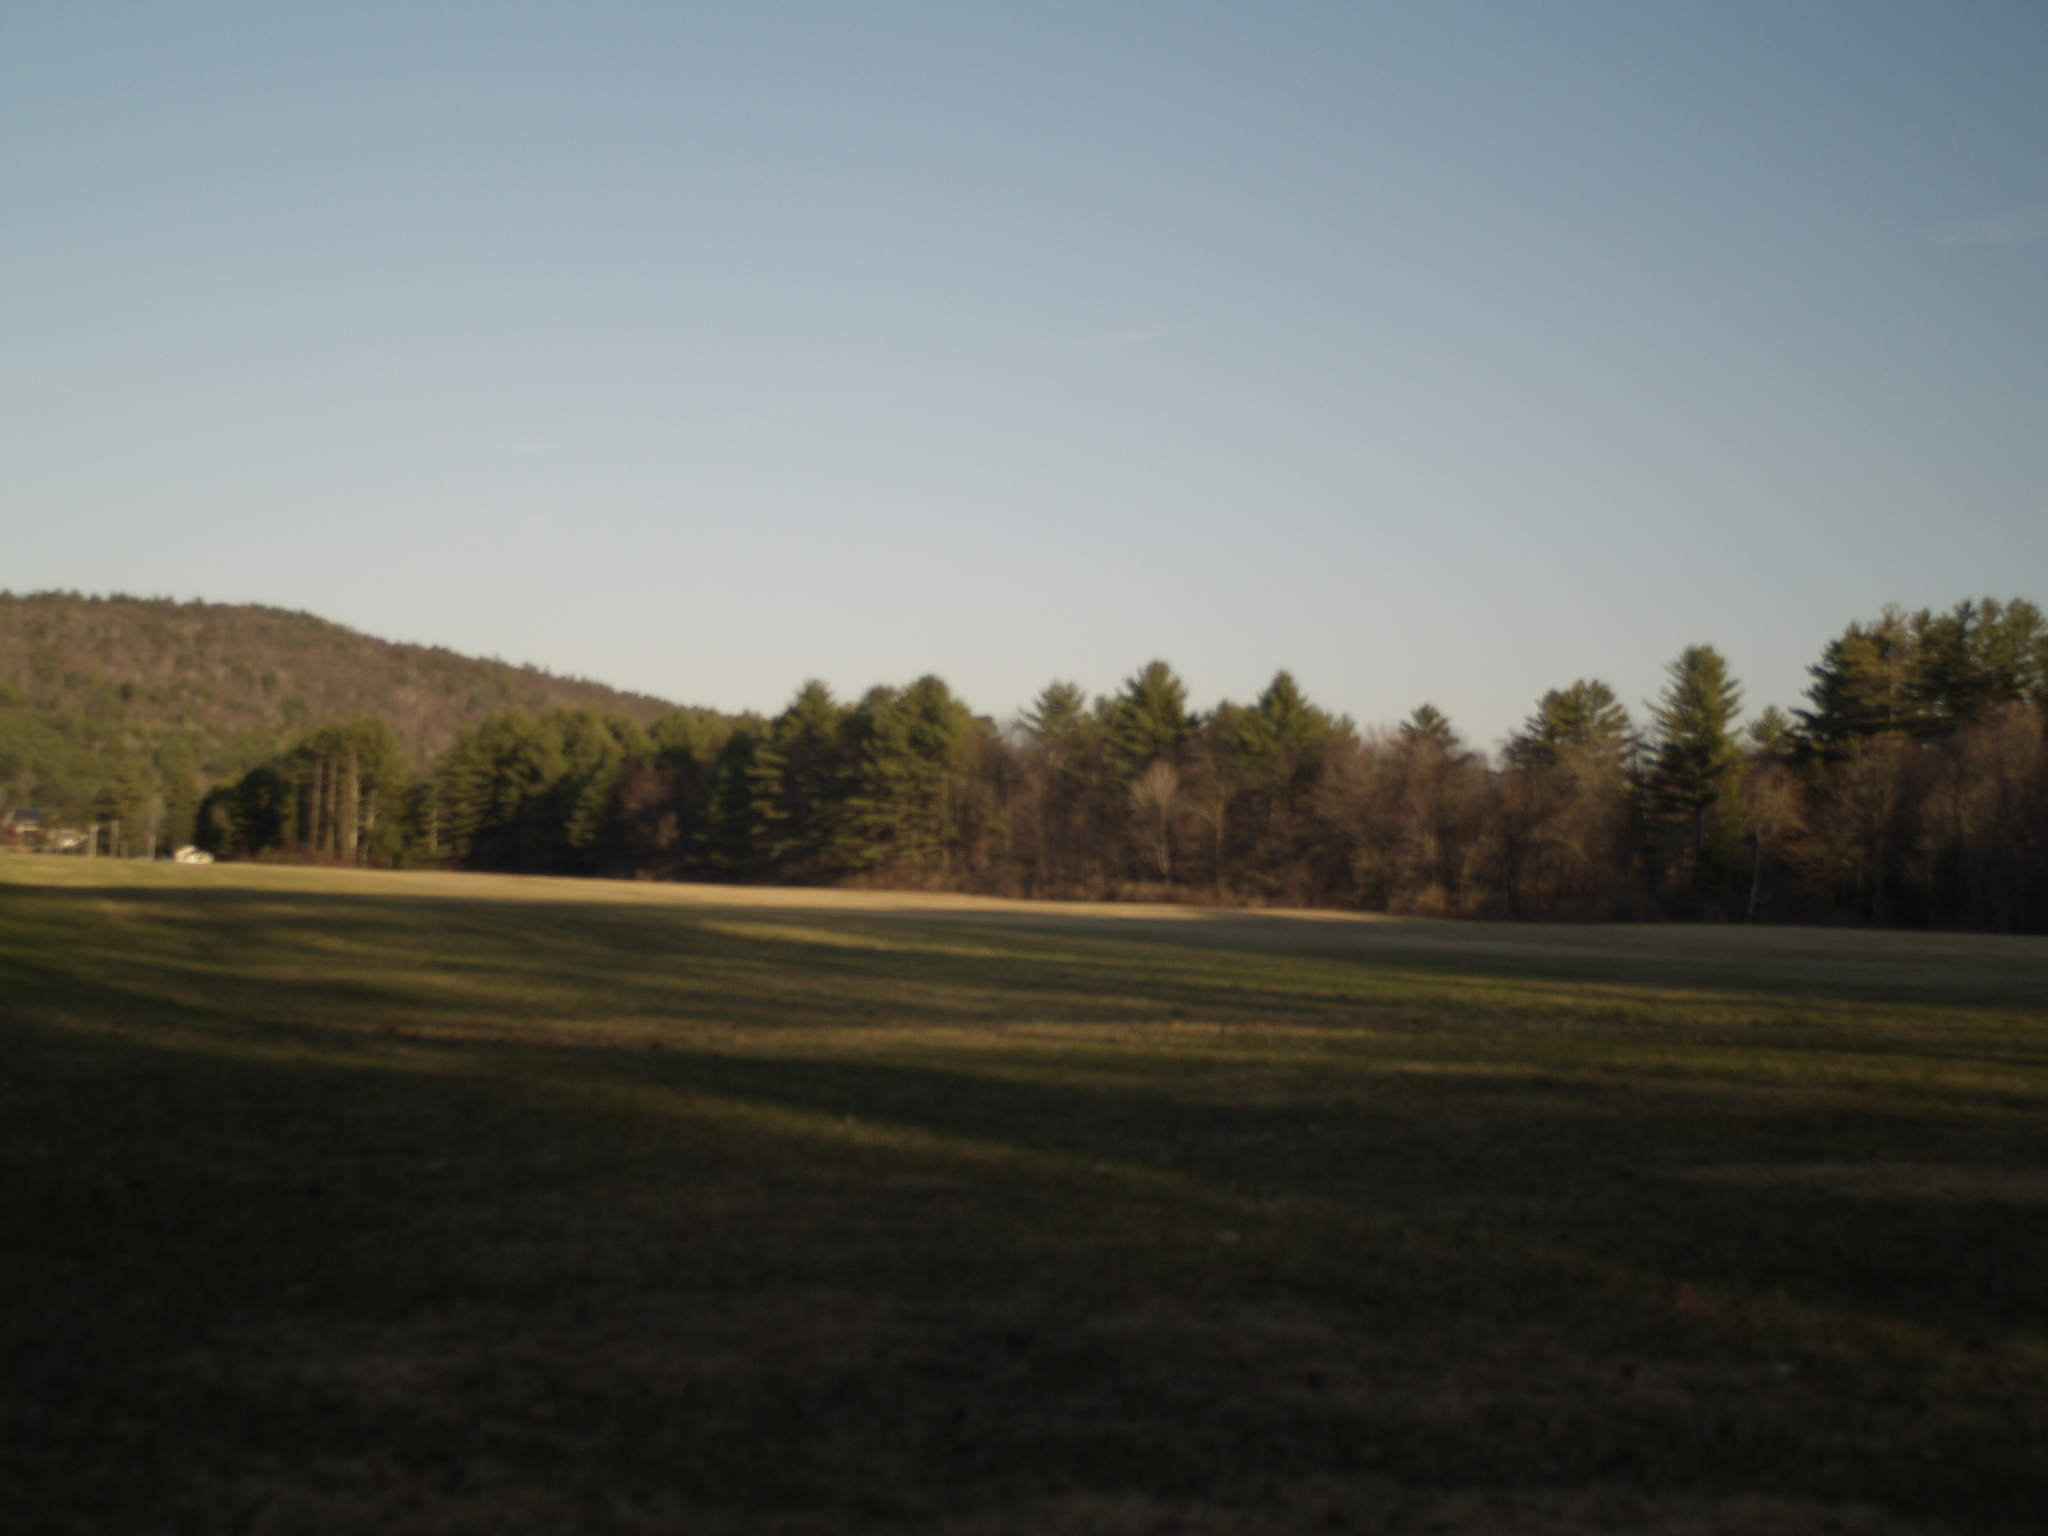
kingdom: Plantae
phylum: Tracheophyta
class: Pinopsida
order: Pinales
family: Pinaceae
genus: Pinus
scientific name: Pinus strobus
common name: Weymouth pine
